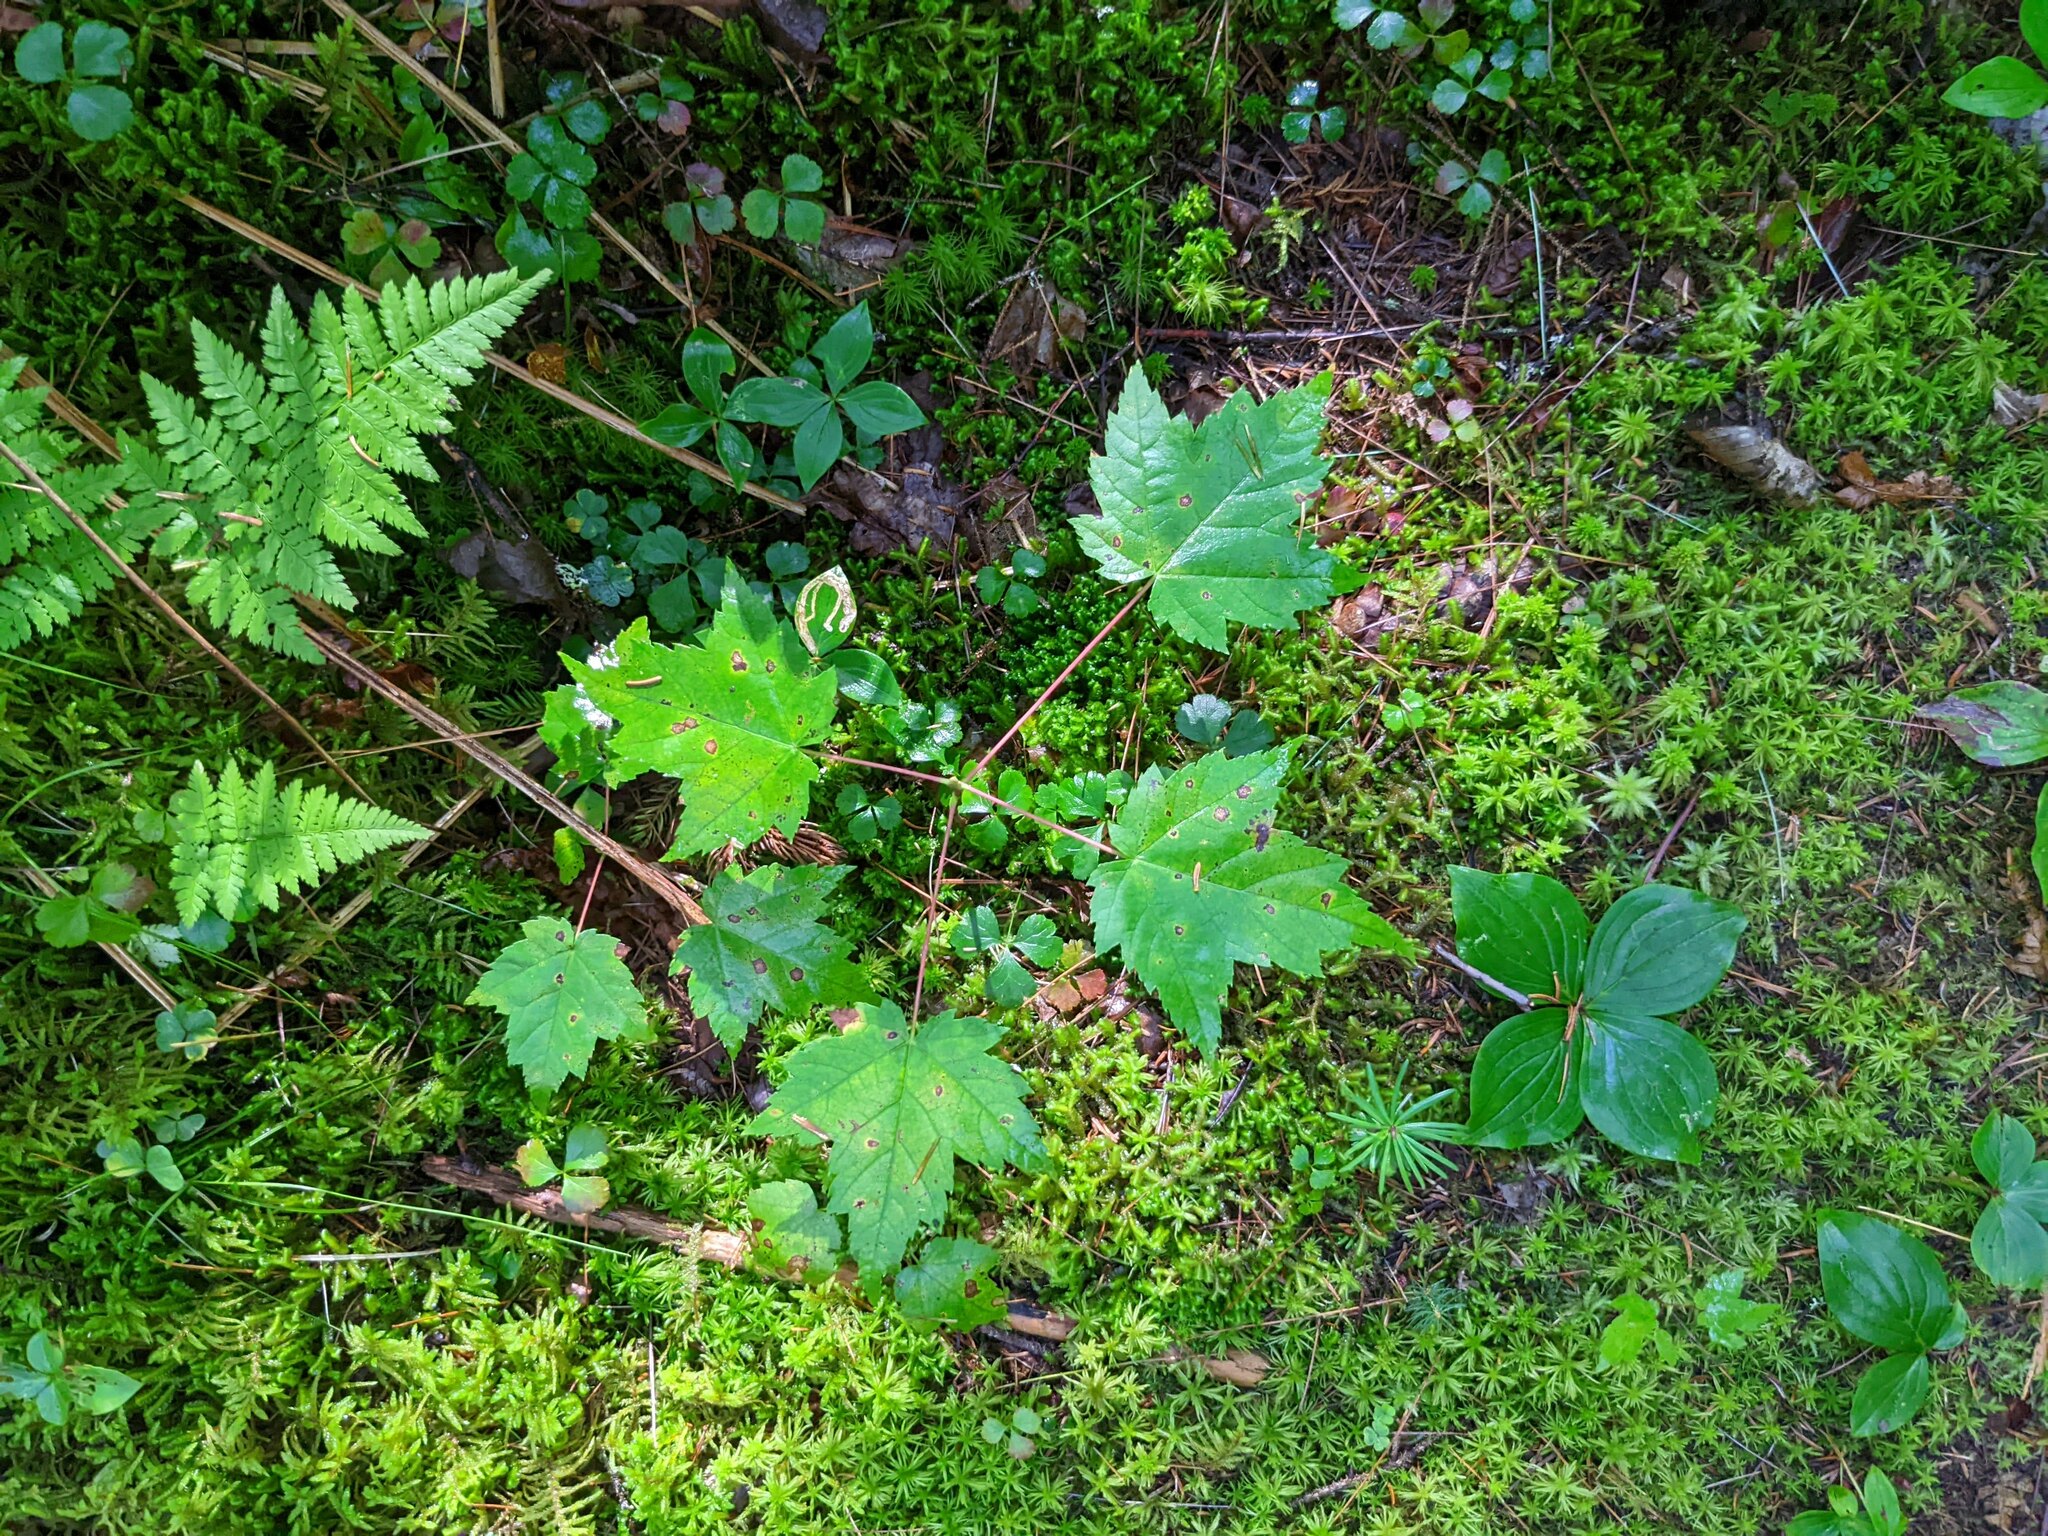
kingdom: Plantae
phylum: Tracheophyta
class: Magnoliopsida
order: Sapindales
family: Sapindaceae
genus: Acer
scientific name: Acer rubrum
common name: Red maple
